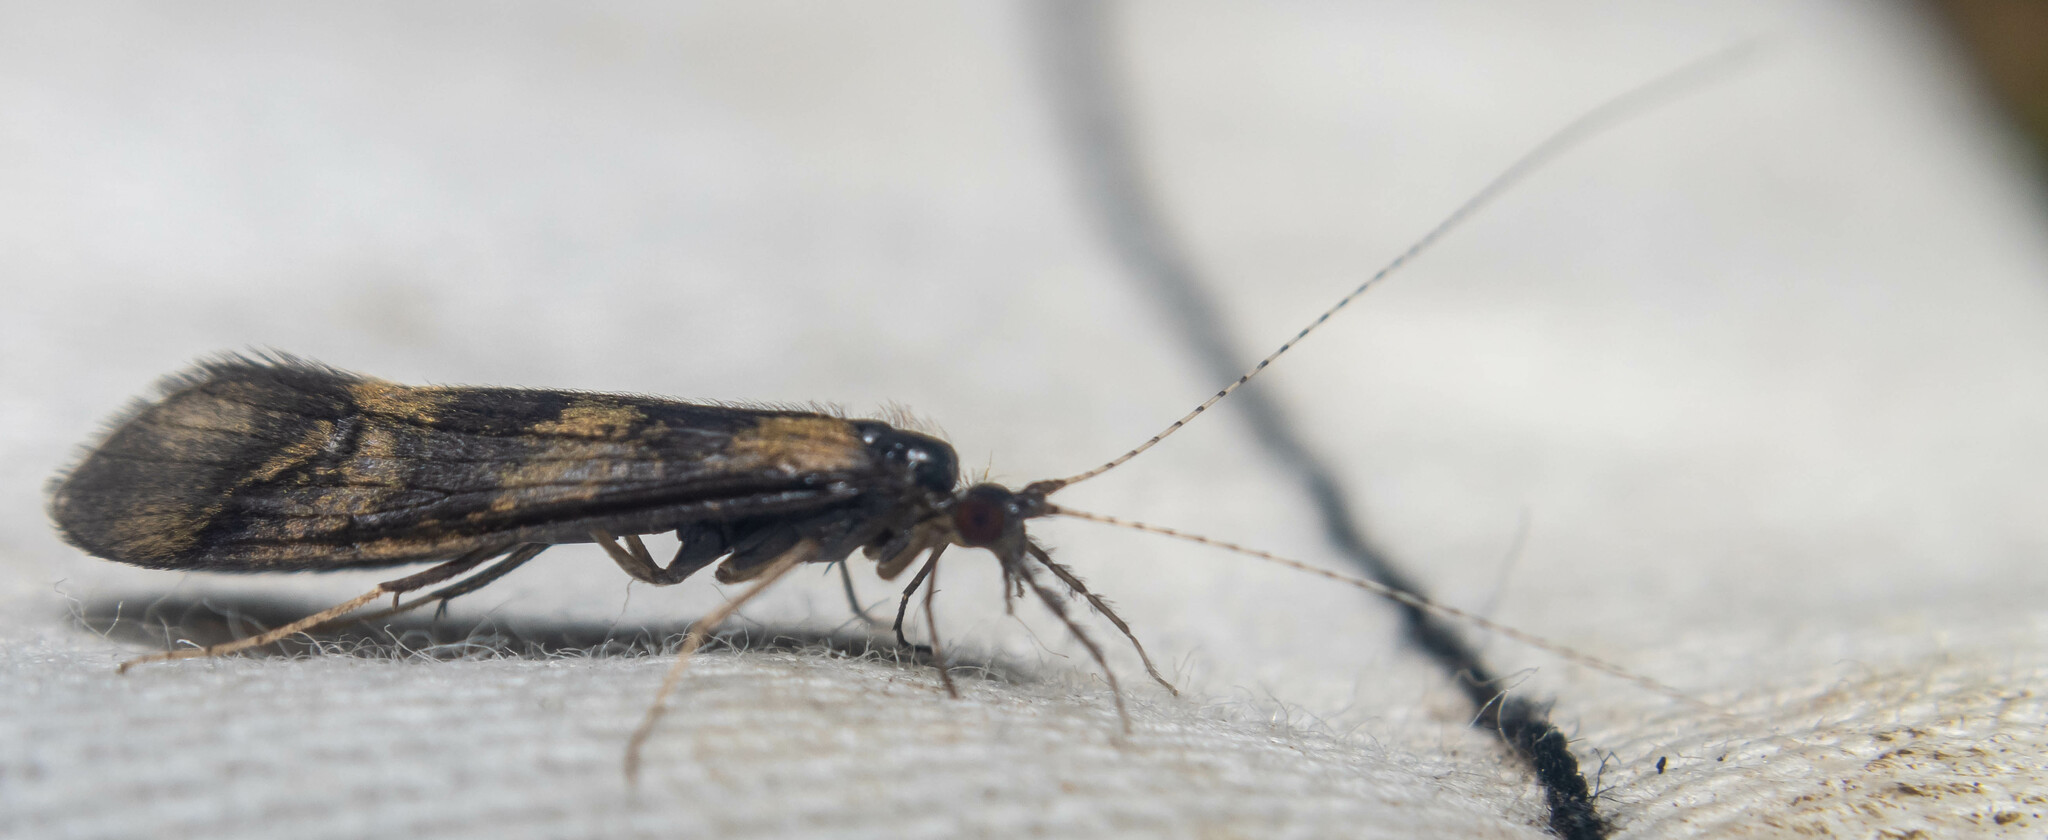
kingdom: Animalia
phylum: Arthropoda
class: Insecta
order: Trichoptera
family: Leptoceridae
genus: Mystacides
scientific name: Mystacides longicornis
